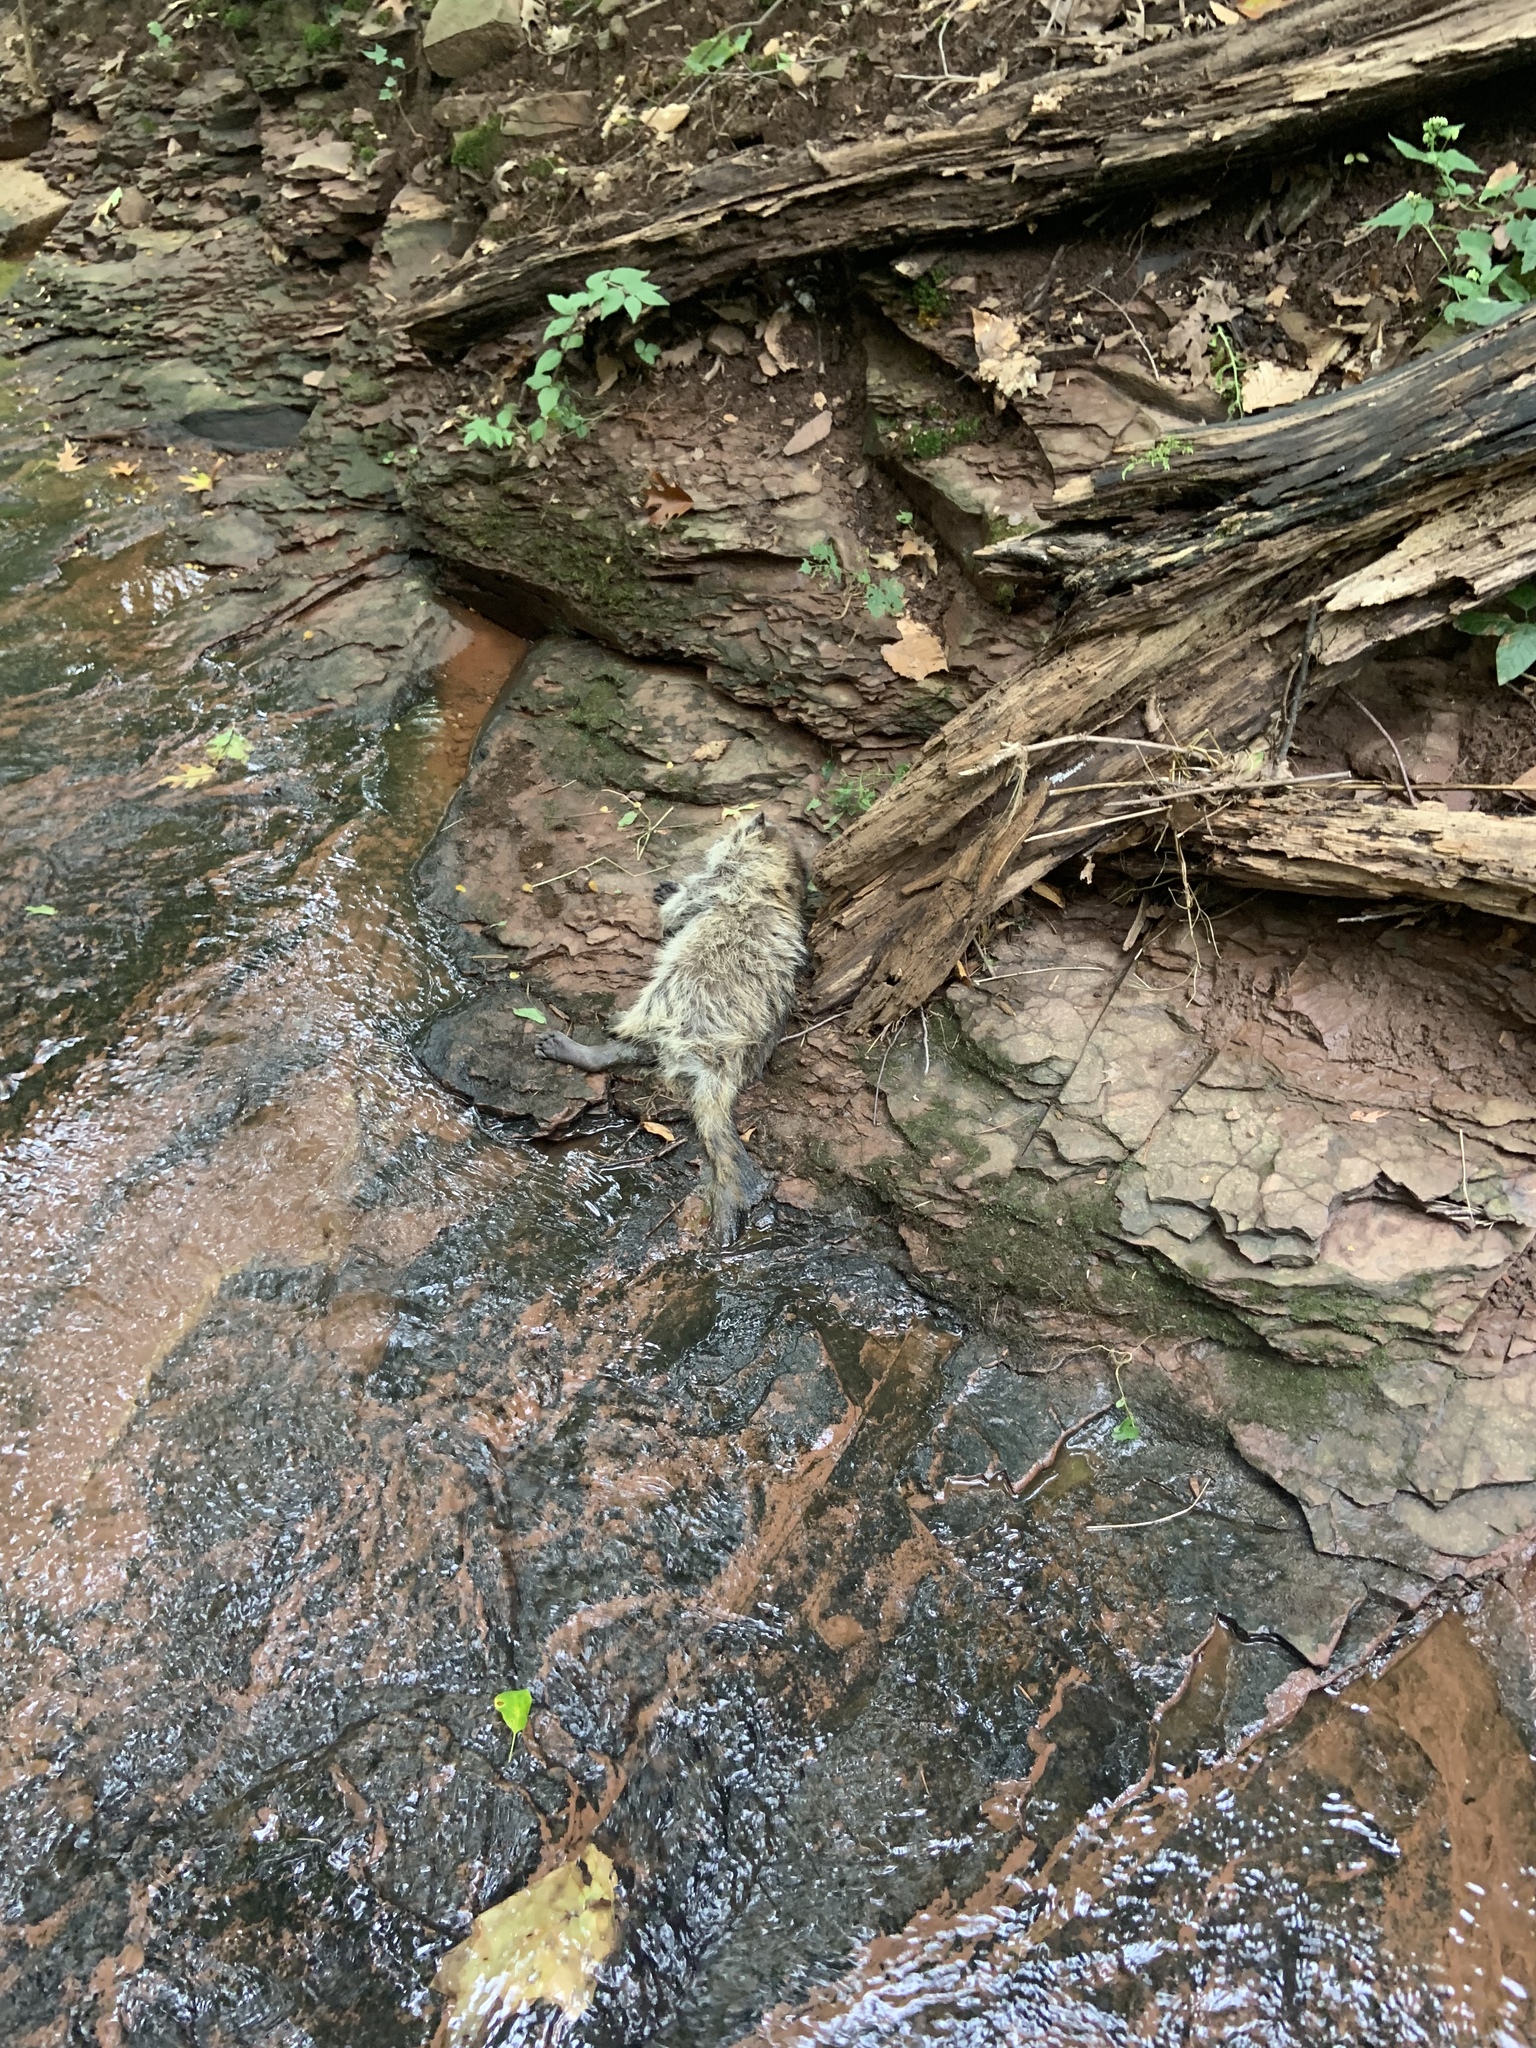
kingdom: Animalia
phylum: Chordata
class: Mammalia
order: Carnivora
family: Procyonidae
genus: Procyon
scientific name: Procyon lotor
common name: Raccoon
